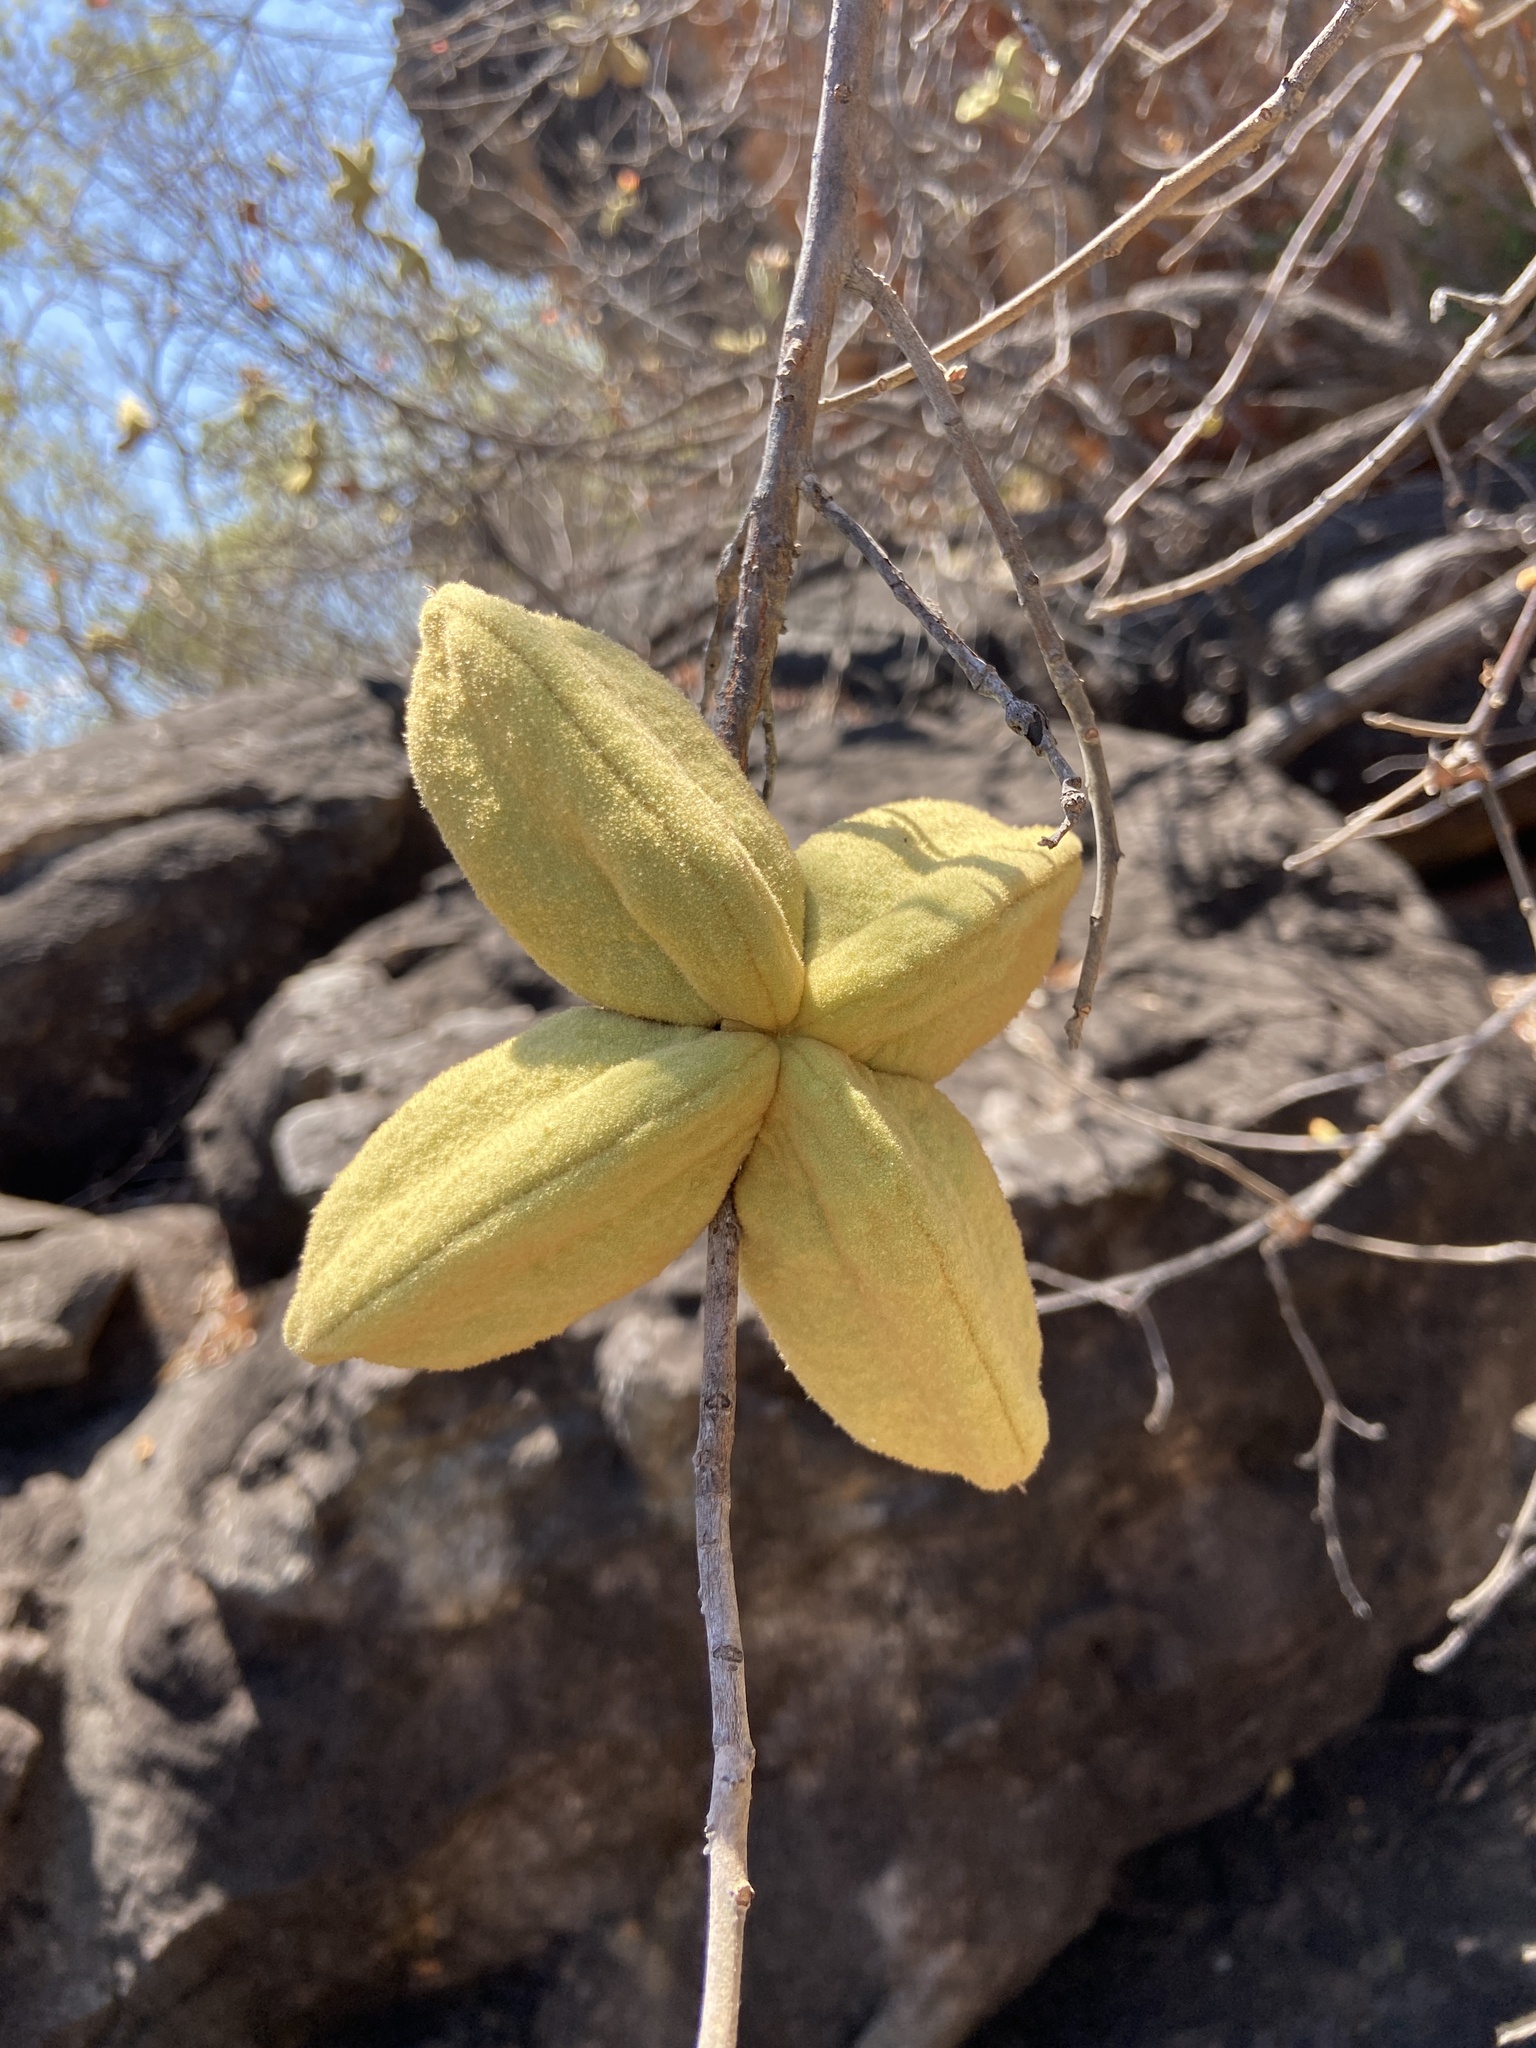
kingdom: Plantae
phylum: Tracheophyta
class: Magnoliopsida
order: Malvales
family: Malvaceae
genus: Brachychiton
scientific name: Brachychiton viscidulus
